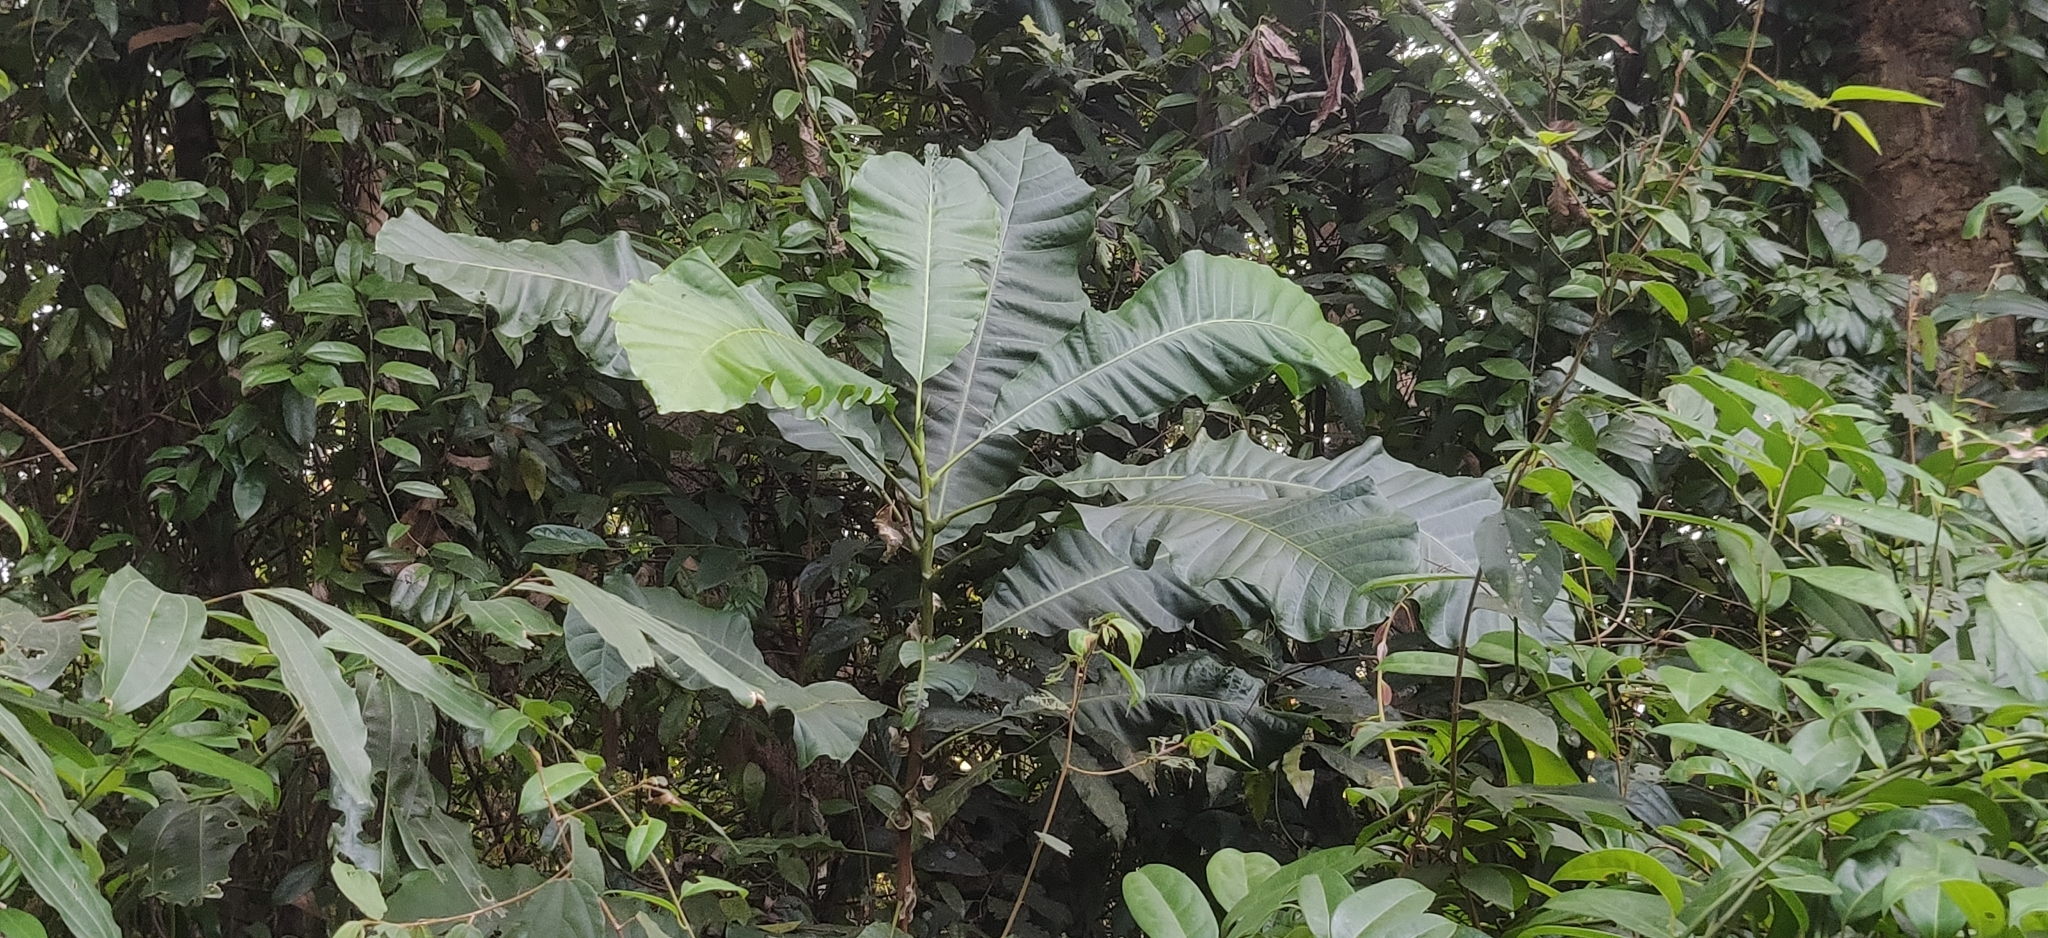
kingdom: Plantae
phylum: Tracheophyta
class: Magnoliopsida
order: Sapindales
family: Anacardiaceae
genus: Semecarpus
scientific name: Semecarpus travancoricus
